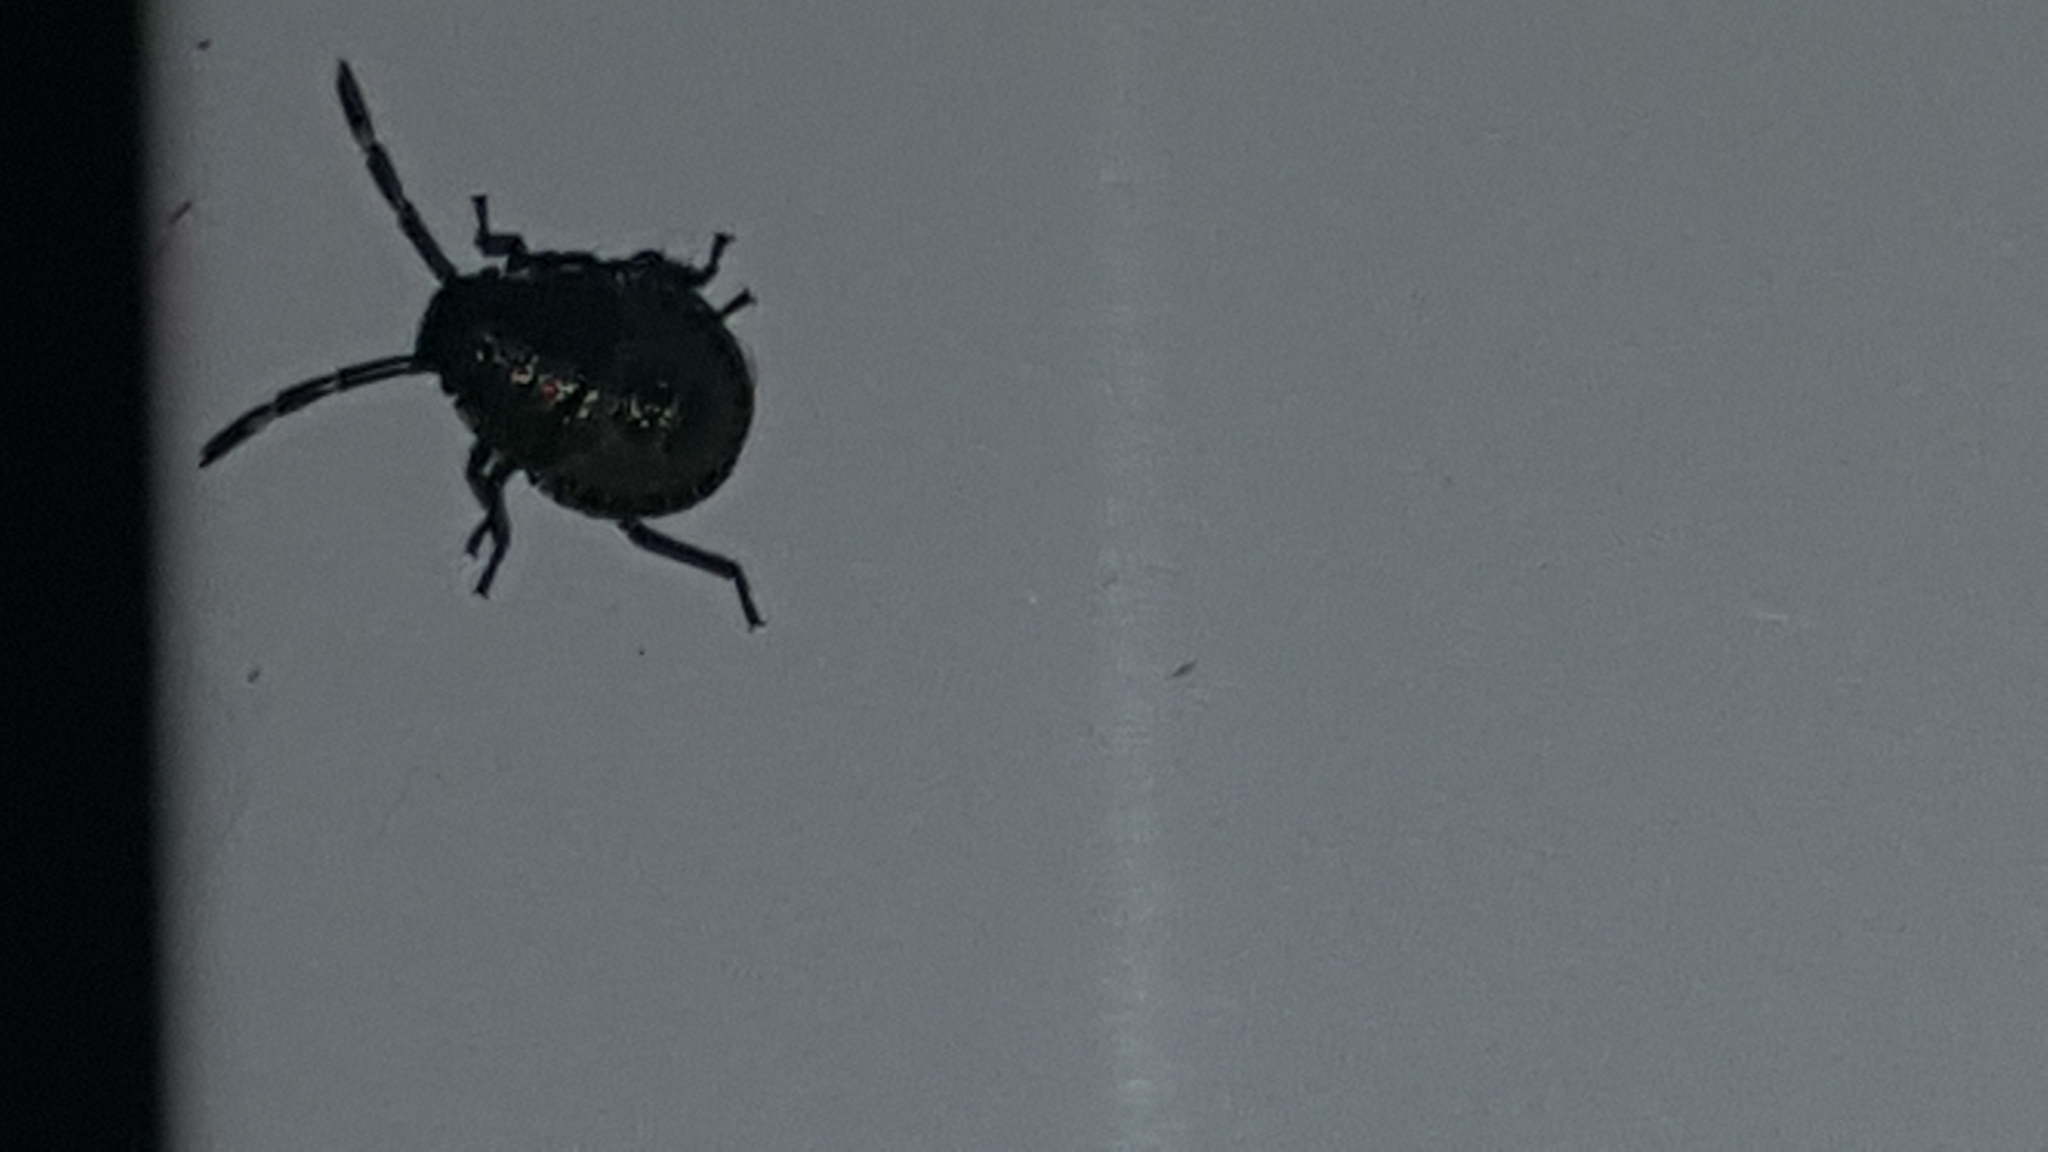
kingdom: Animalia
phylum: Arthropoda
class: Insecta
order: Hemiptera
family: Pentatomidae
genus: Rhaphigaster
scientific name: Rhaphigaster nebulosa
